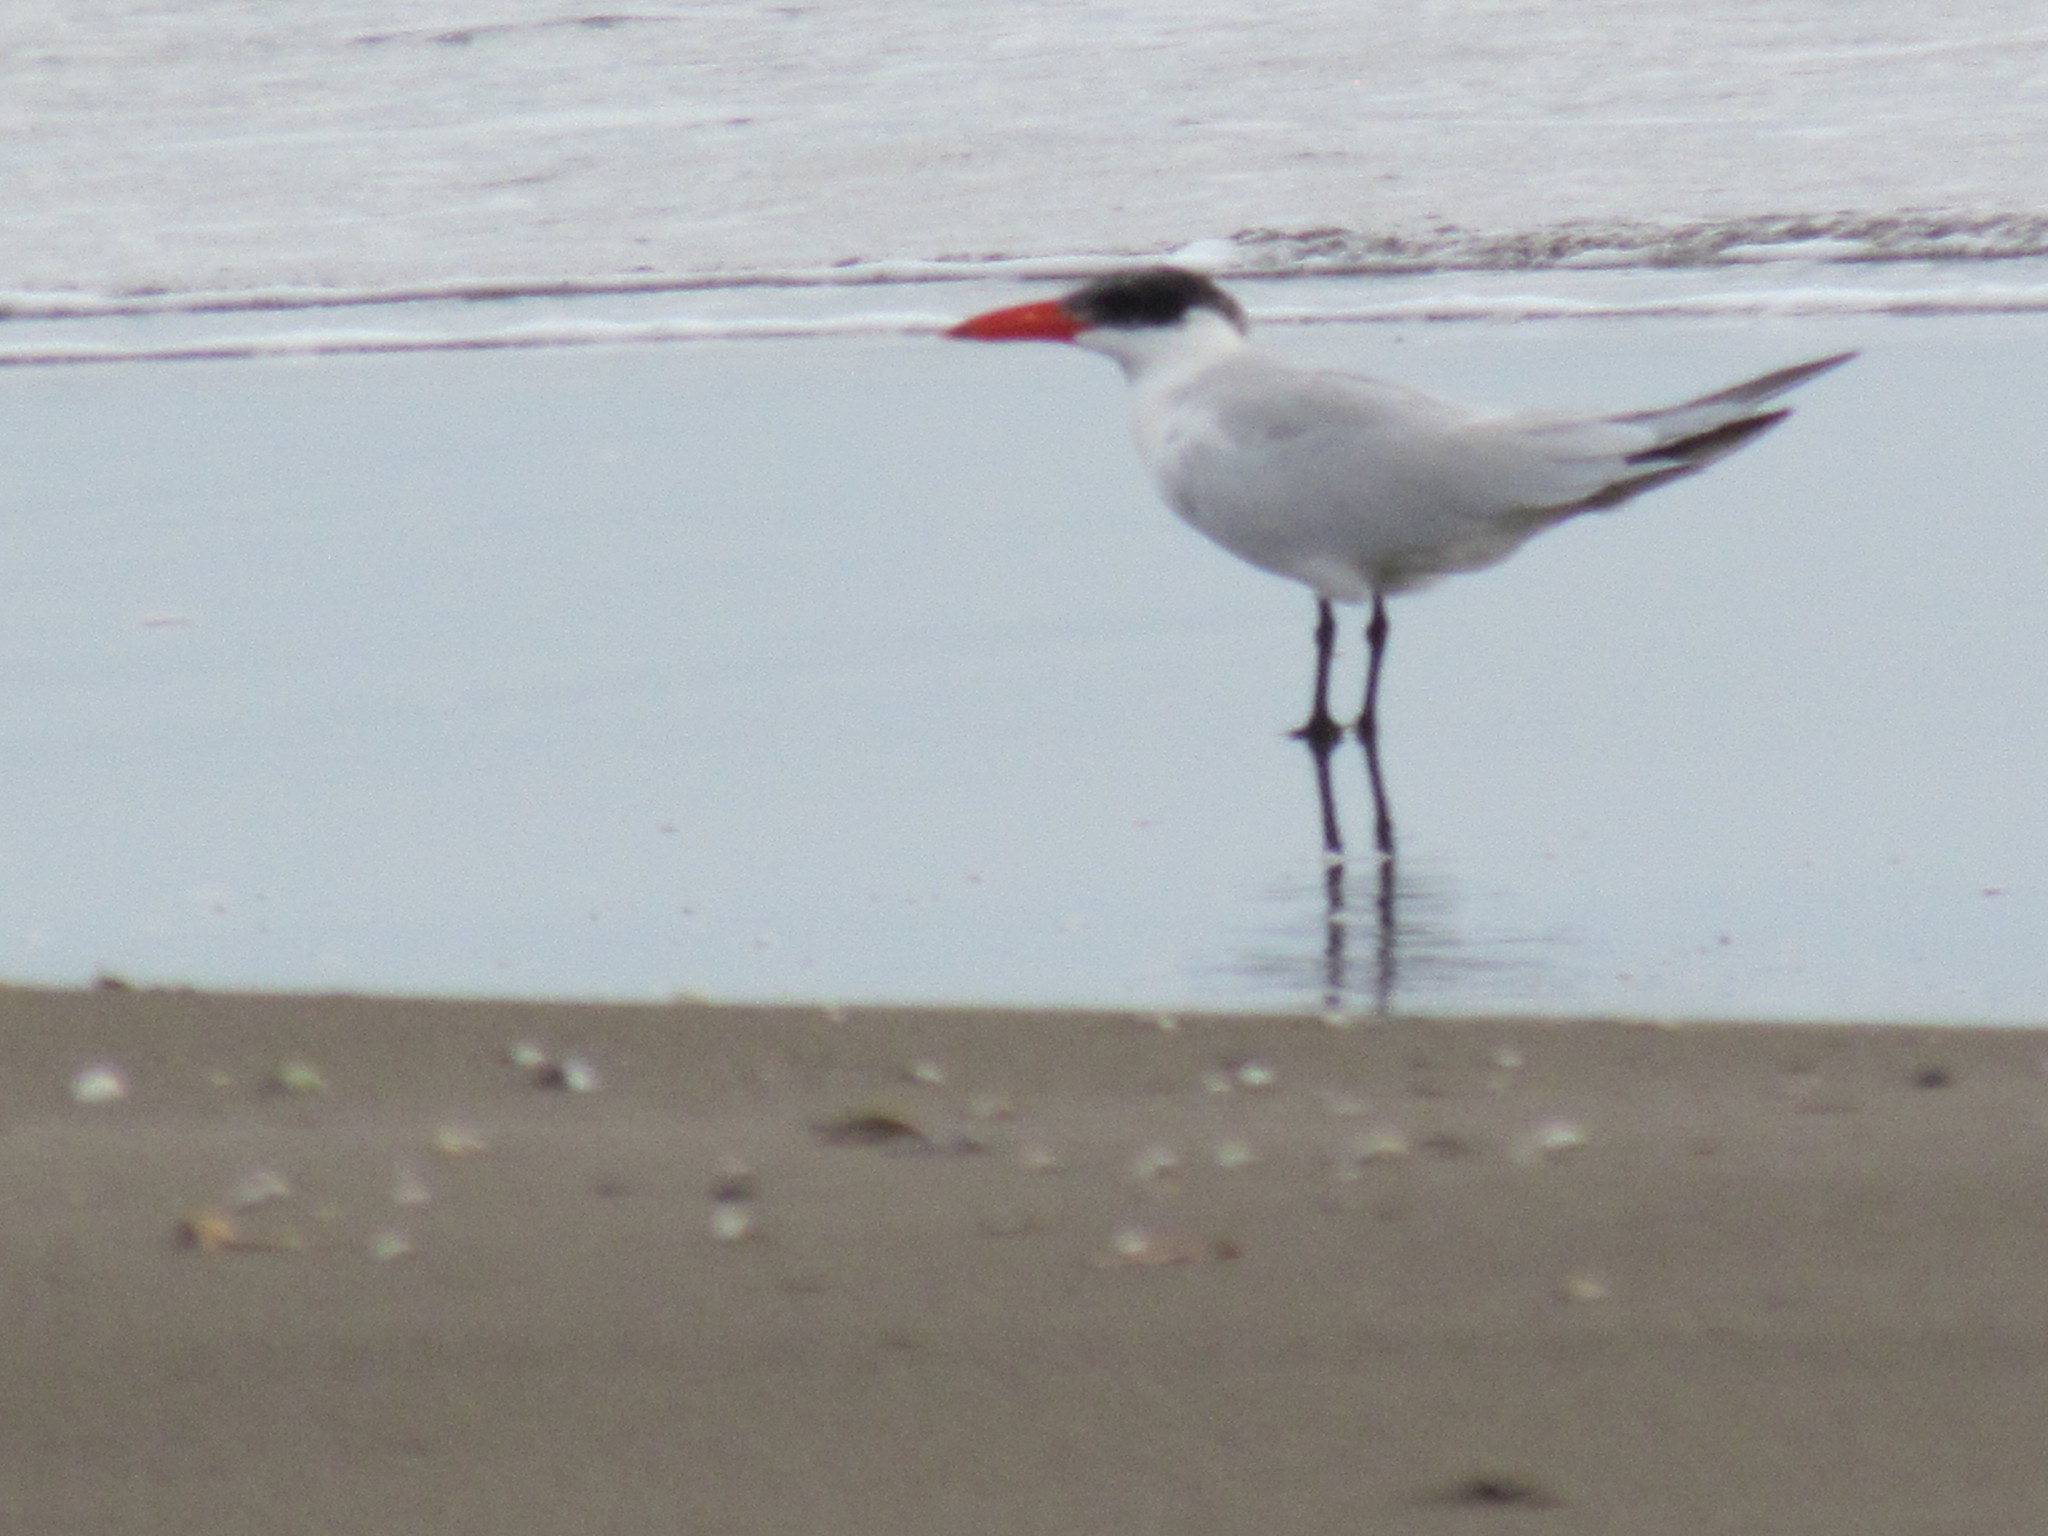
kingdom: Animalia
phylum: Chordata
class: Aves
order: Charadriiformes
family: Laridae
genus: Hydroprogne
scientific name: Hydroprogne caspia
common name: Caspian tern
